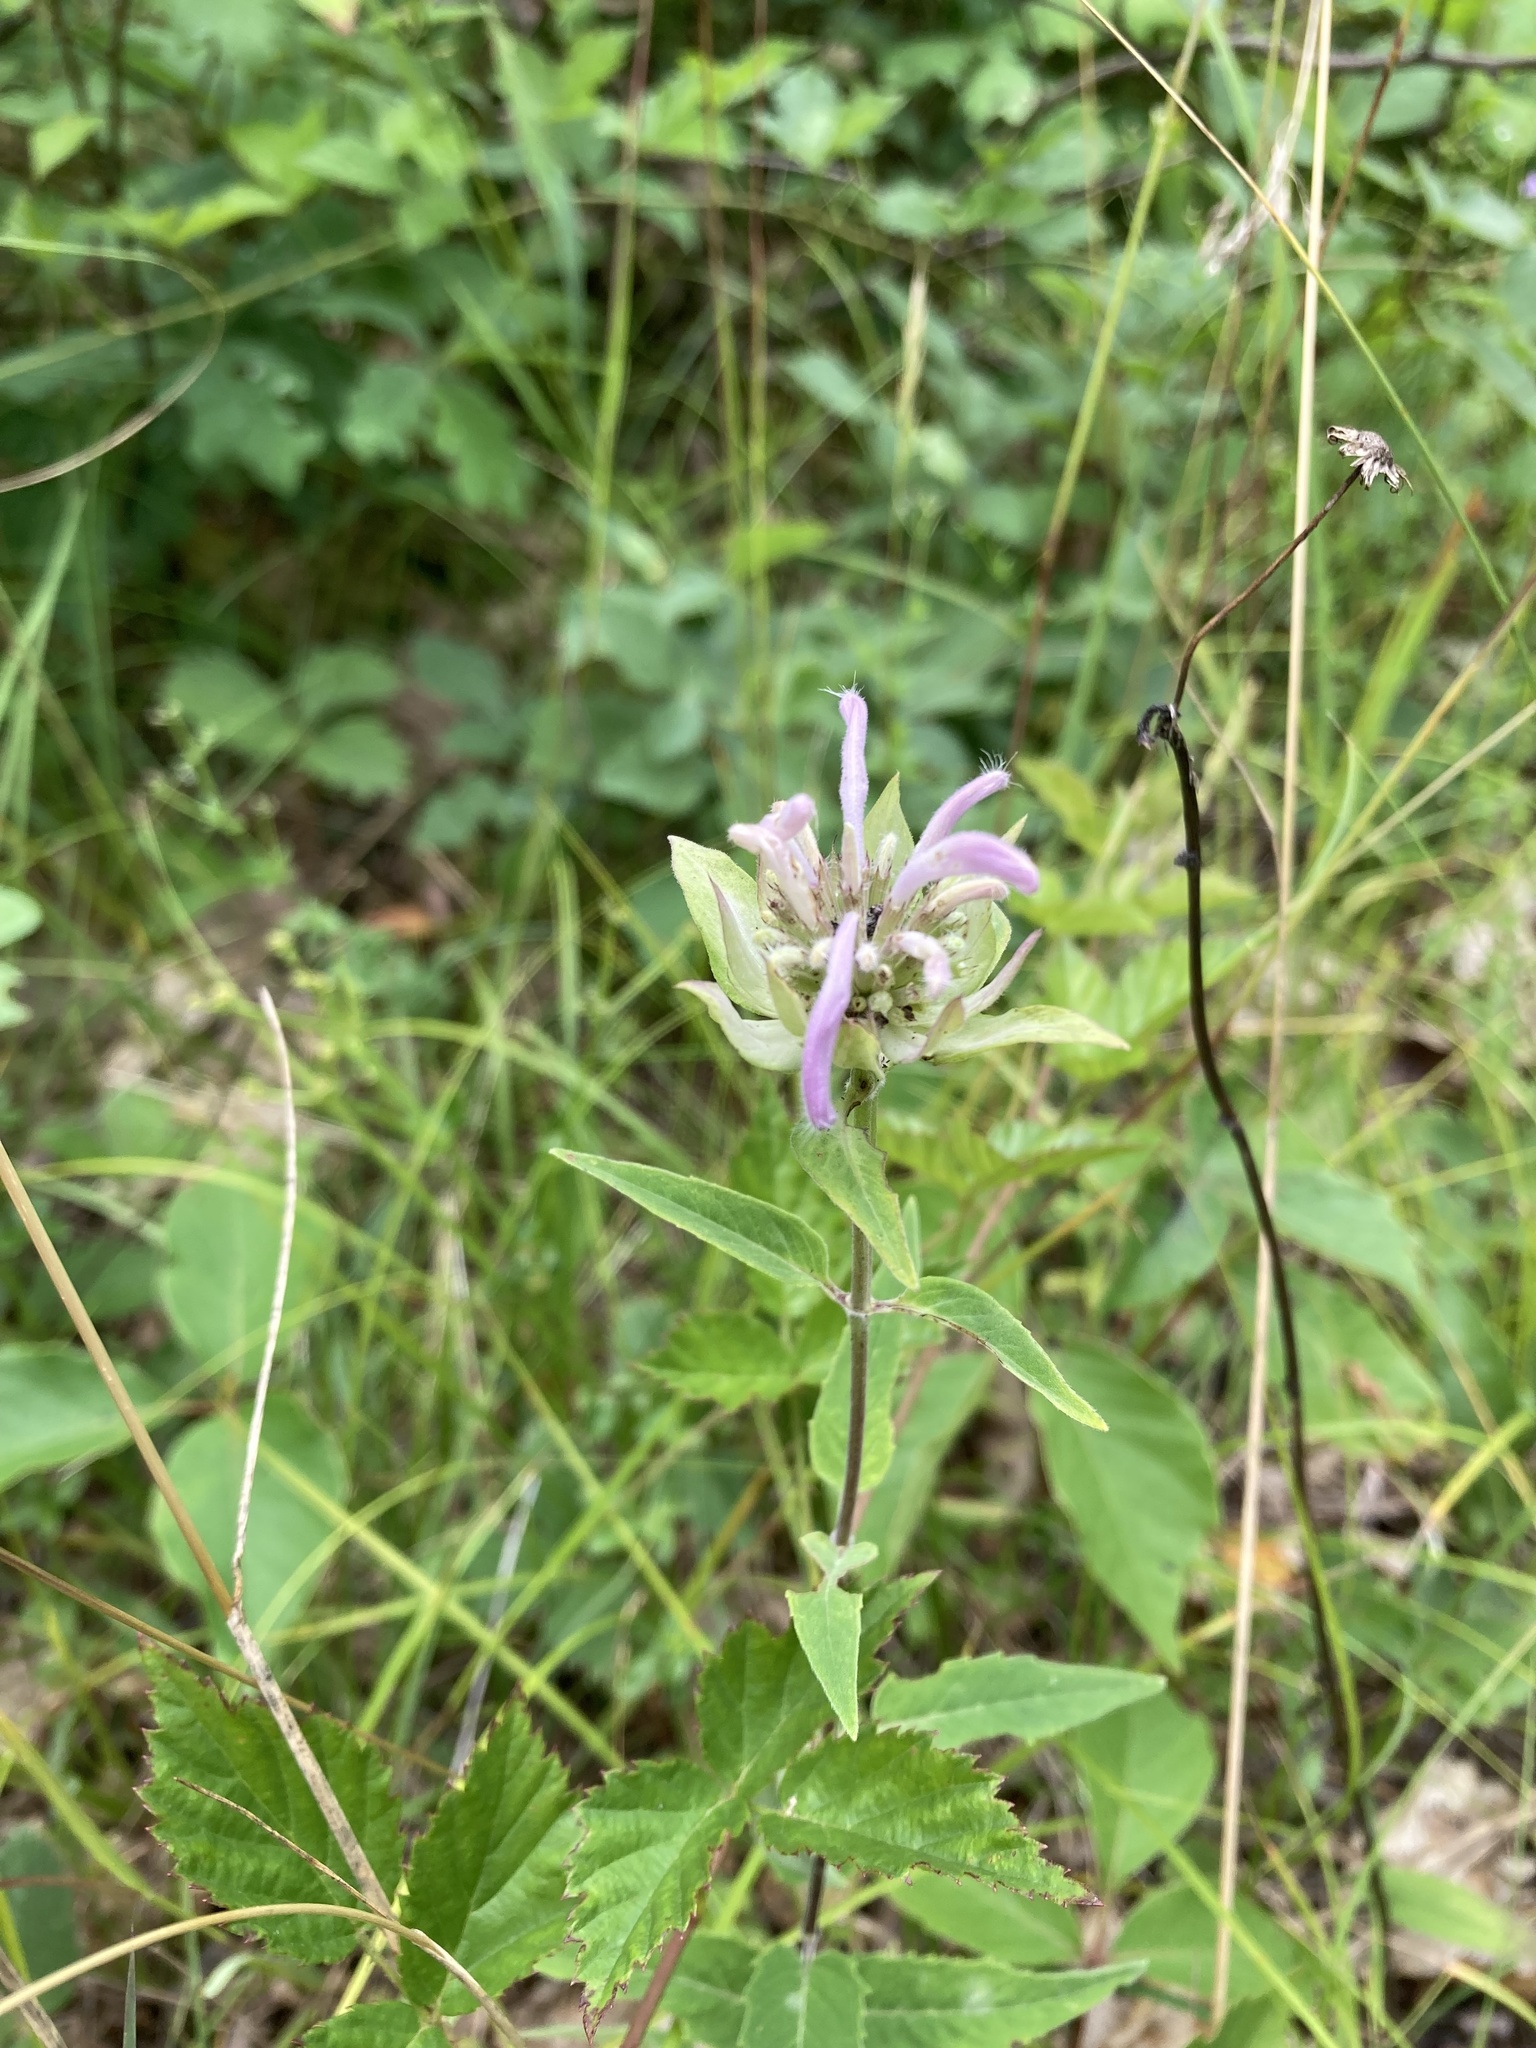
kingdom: Plantae
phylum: Tracheophyta
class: Magnoliopsida
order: Lamiales
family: Lamiaceae
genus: Monarda
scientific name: Monarda fistulosa
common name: Purple beebalm
